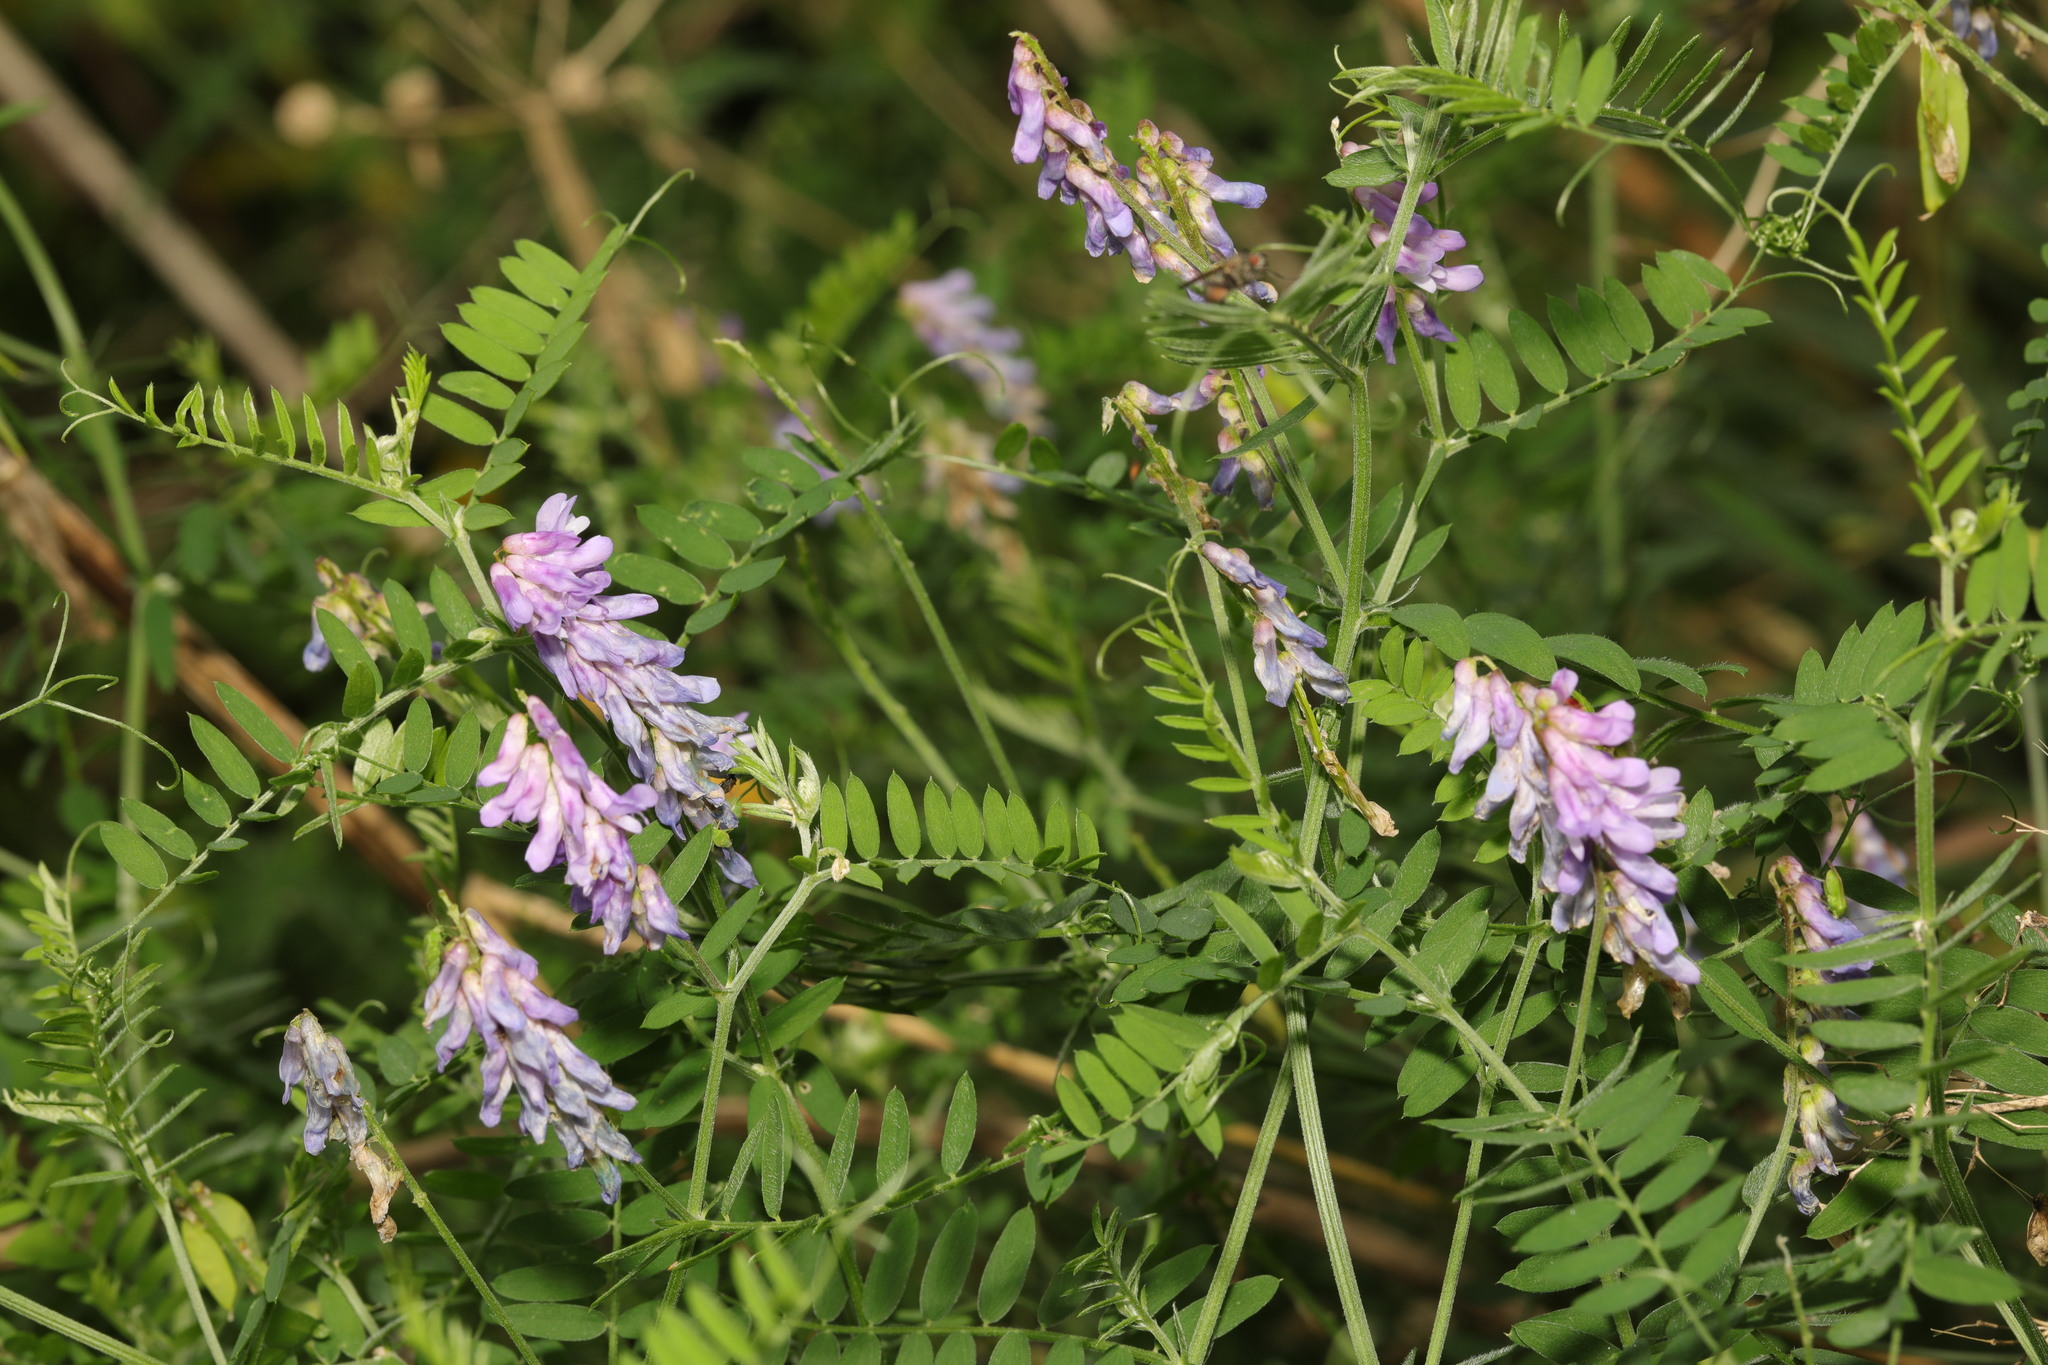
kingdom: Plantae
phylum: Tracheophyta
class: Magnoliopsida
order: Fabales
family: Fabaceae
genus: Vicia
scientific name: Vicia cracca
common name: Bird vetch
